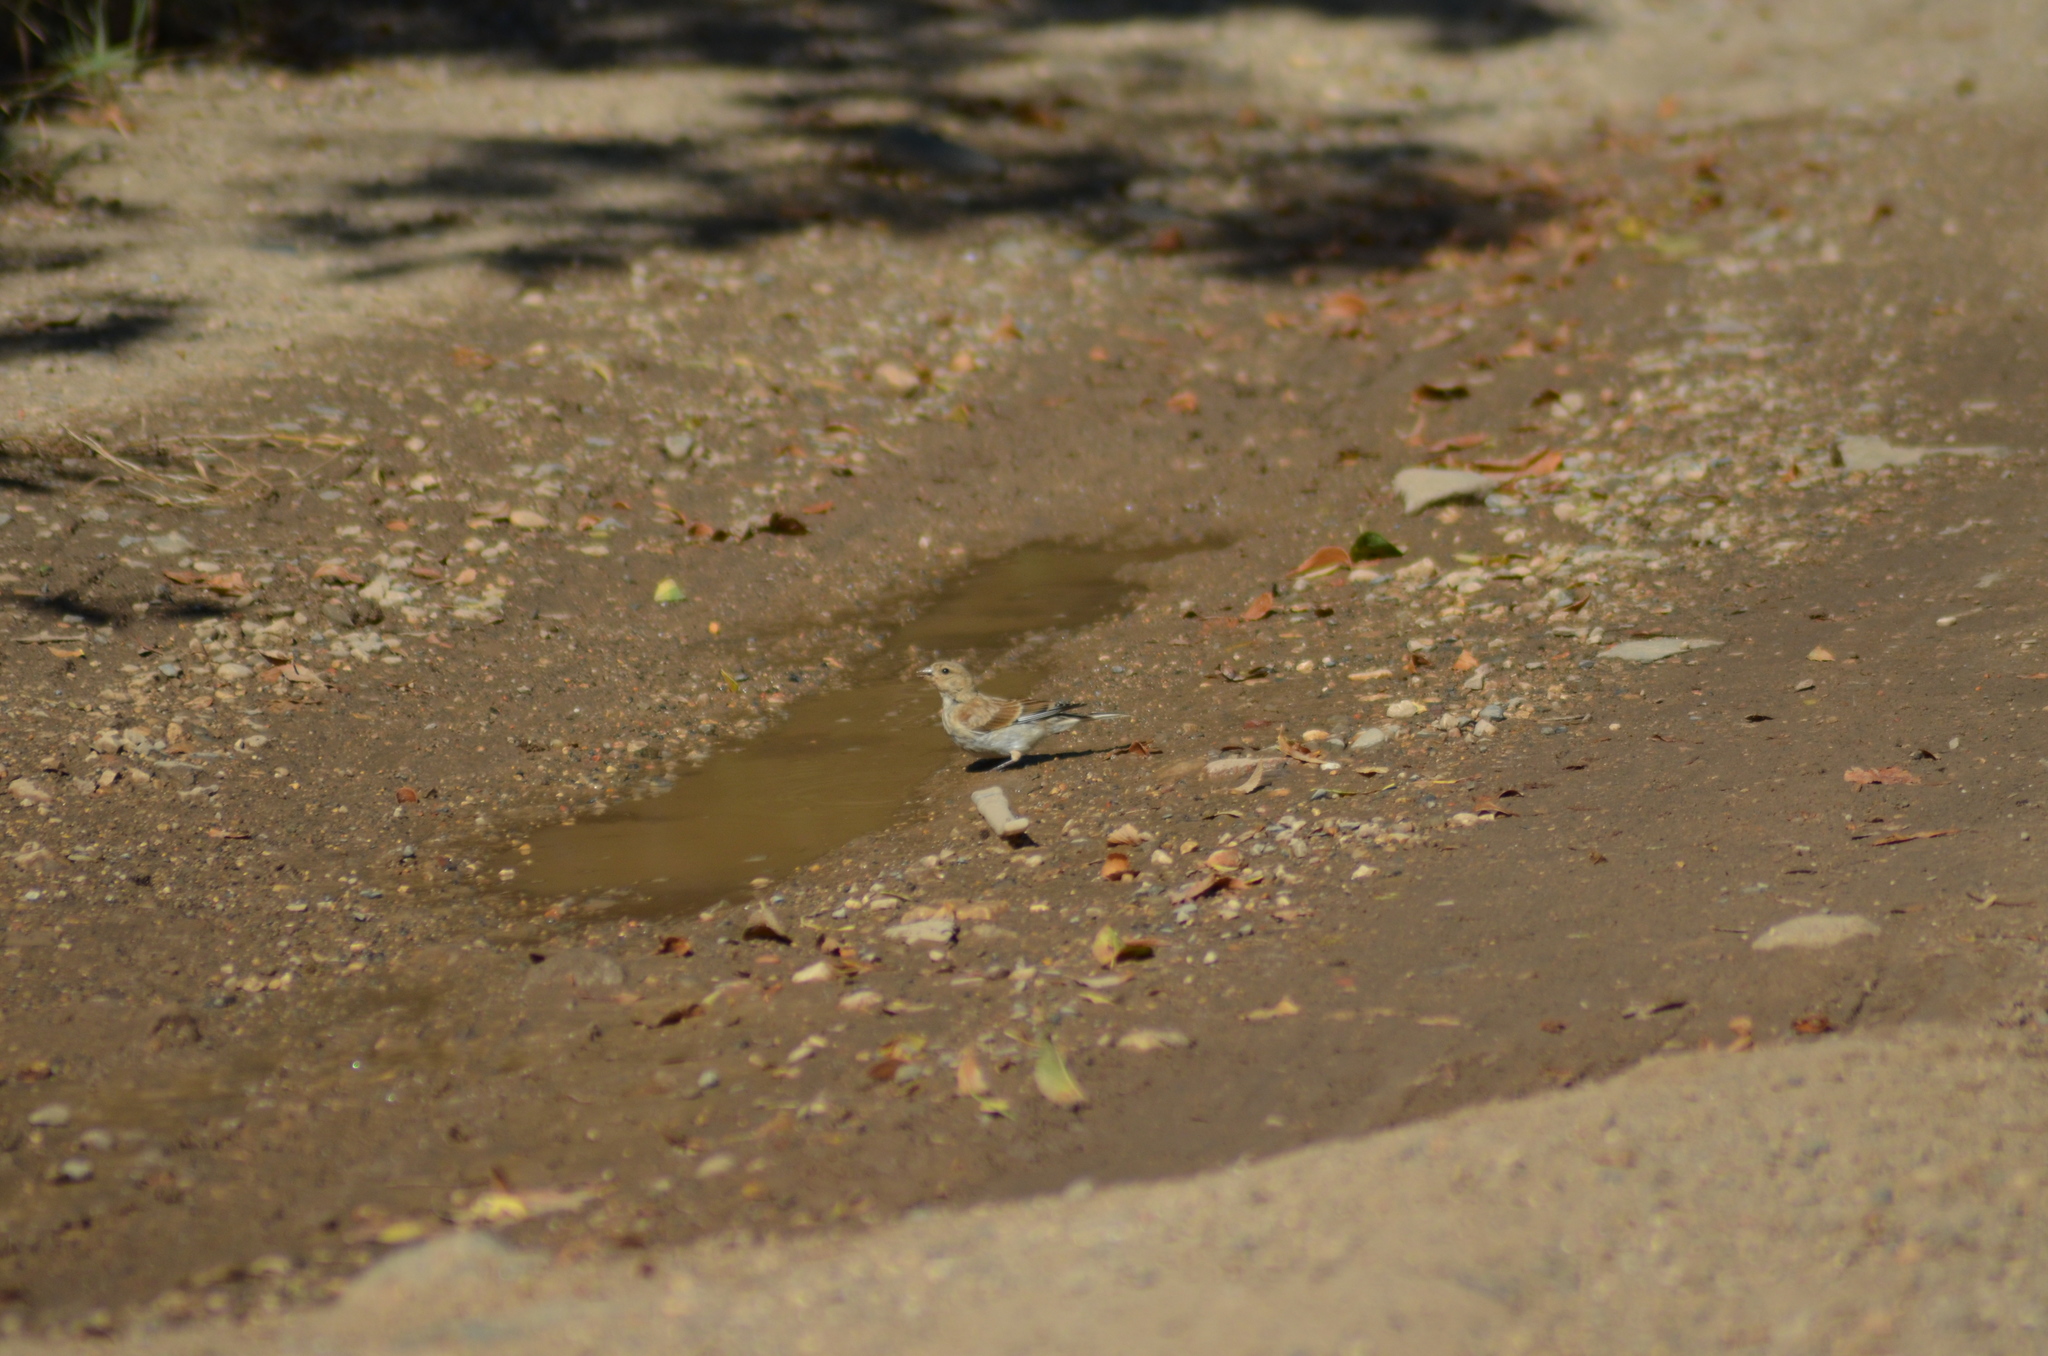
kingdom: Animalia
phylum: Chordata
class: Aves
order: Passeriformes
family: Fringillidae
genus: Linaria
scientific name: Linaria cannabina
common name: Common linnet
